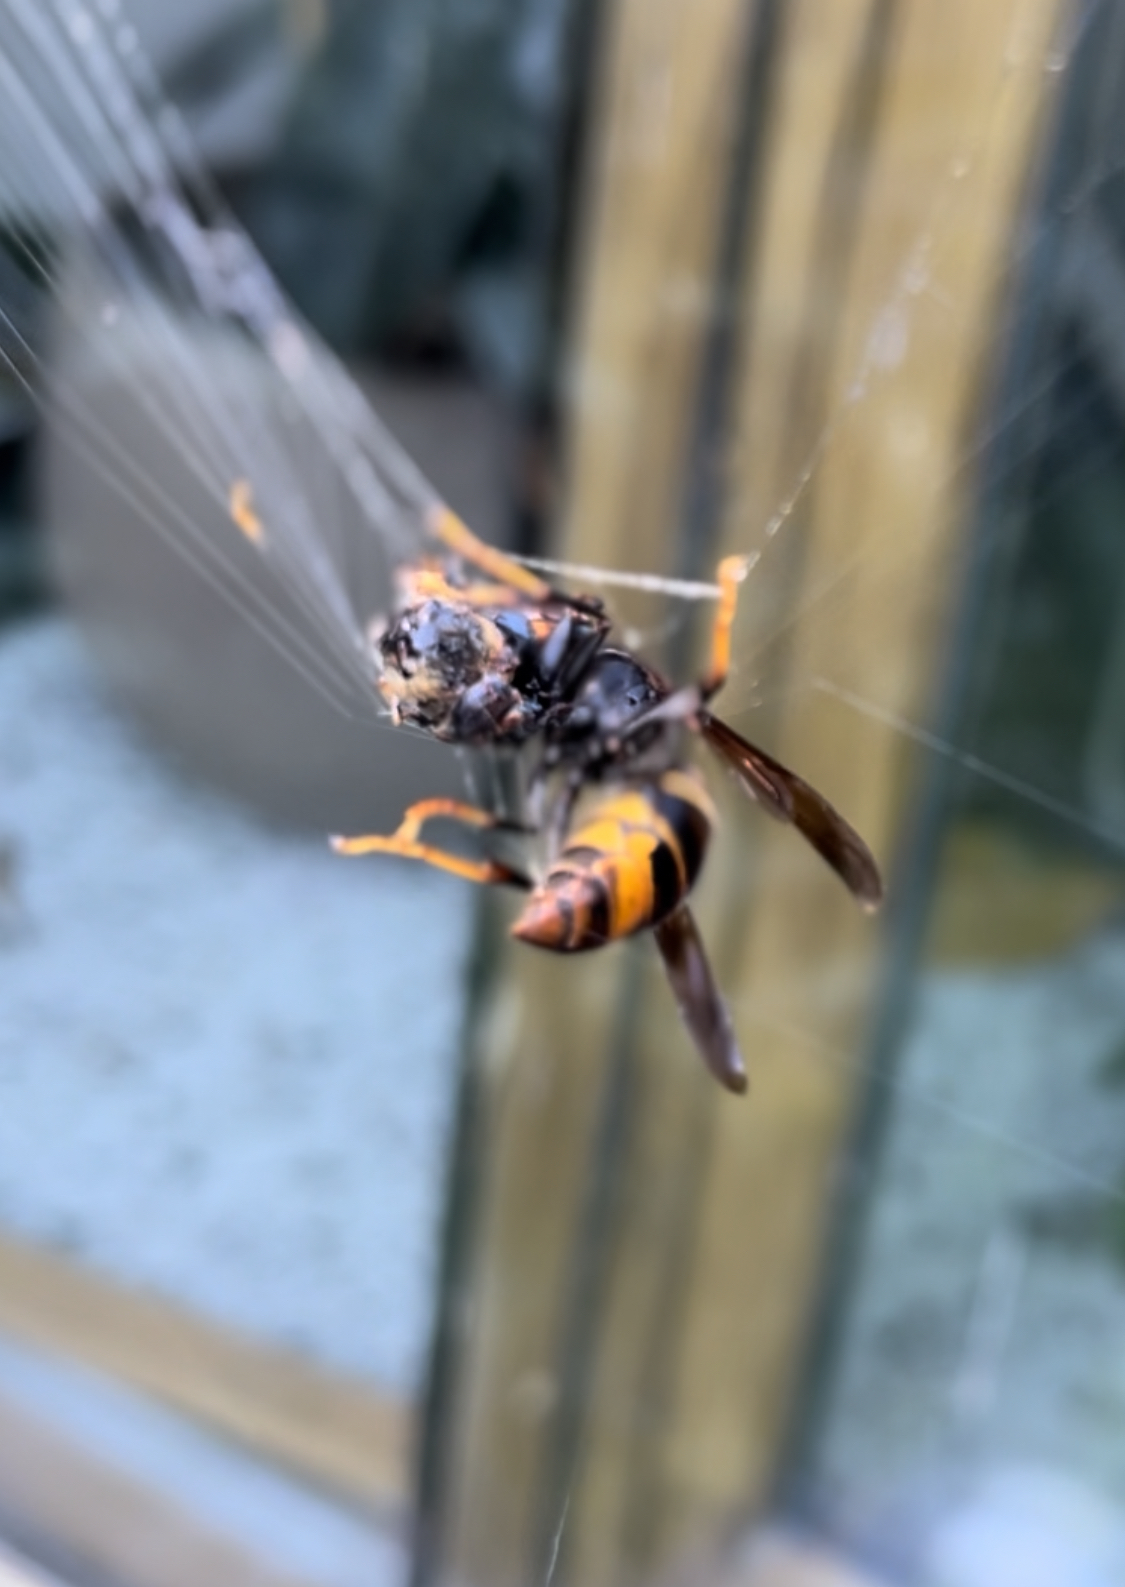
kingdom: Animalia
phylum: Arthropoda
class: Insecta
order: Hymenoptera
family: Vespidae
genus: Vespa
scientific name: Vespa velutina
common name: Asian hornet
